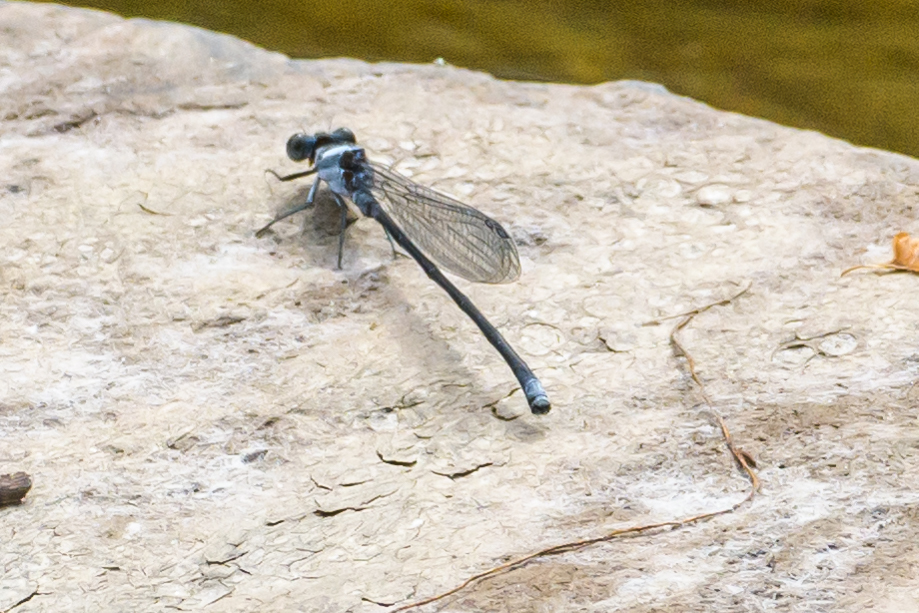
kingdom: Animalia
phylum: Arthropoda
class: Insecta
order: Odonata
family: Coenagrionidae
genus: Argia
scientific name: Argia moesta
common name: Powdered dancer
